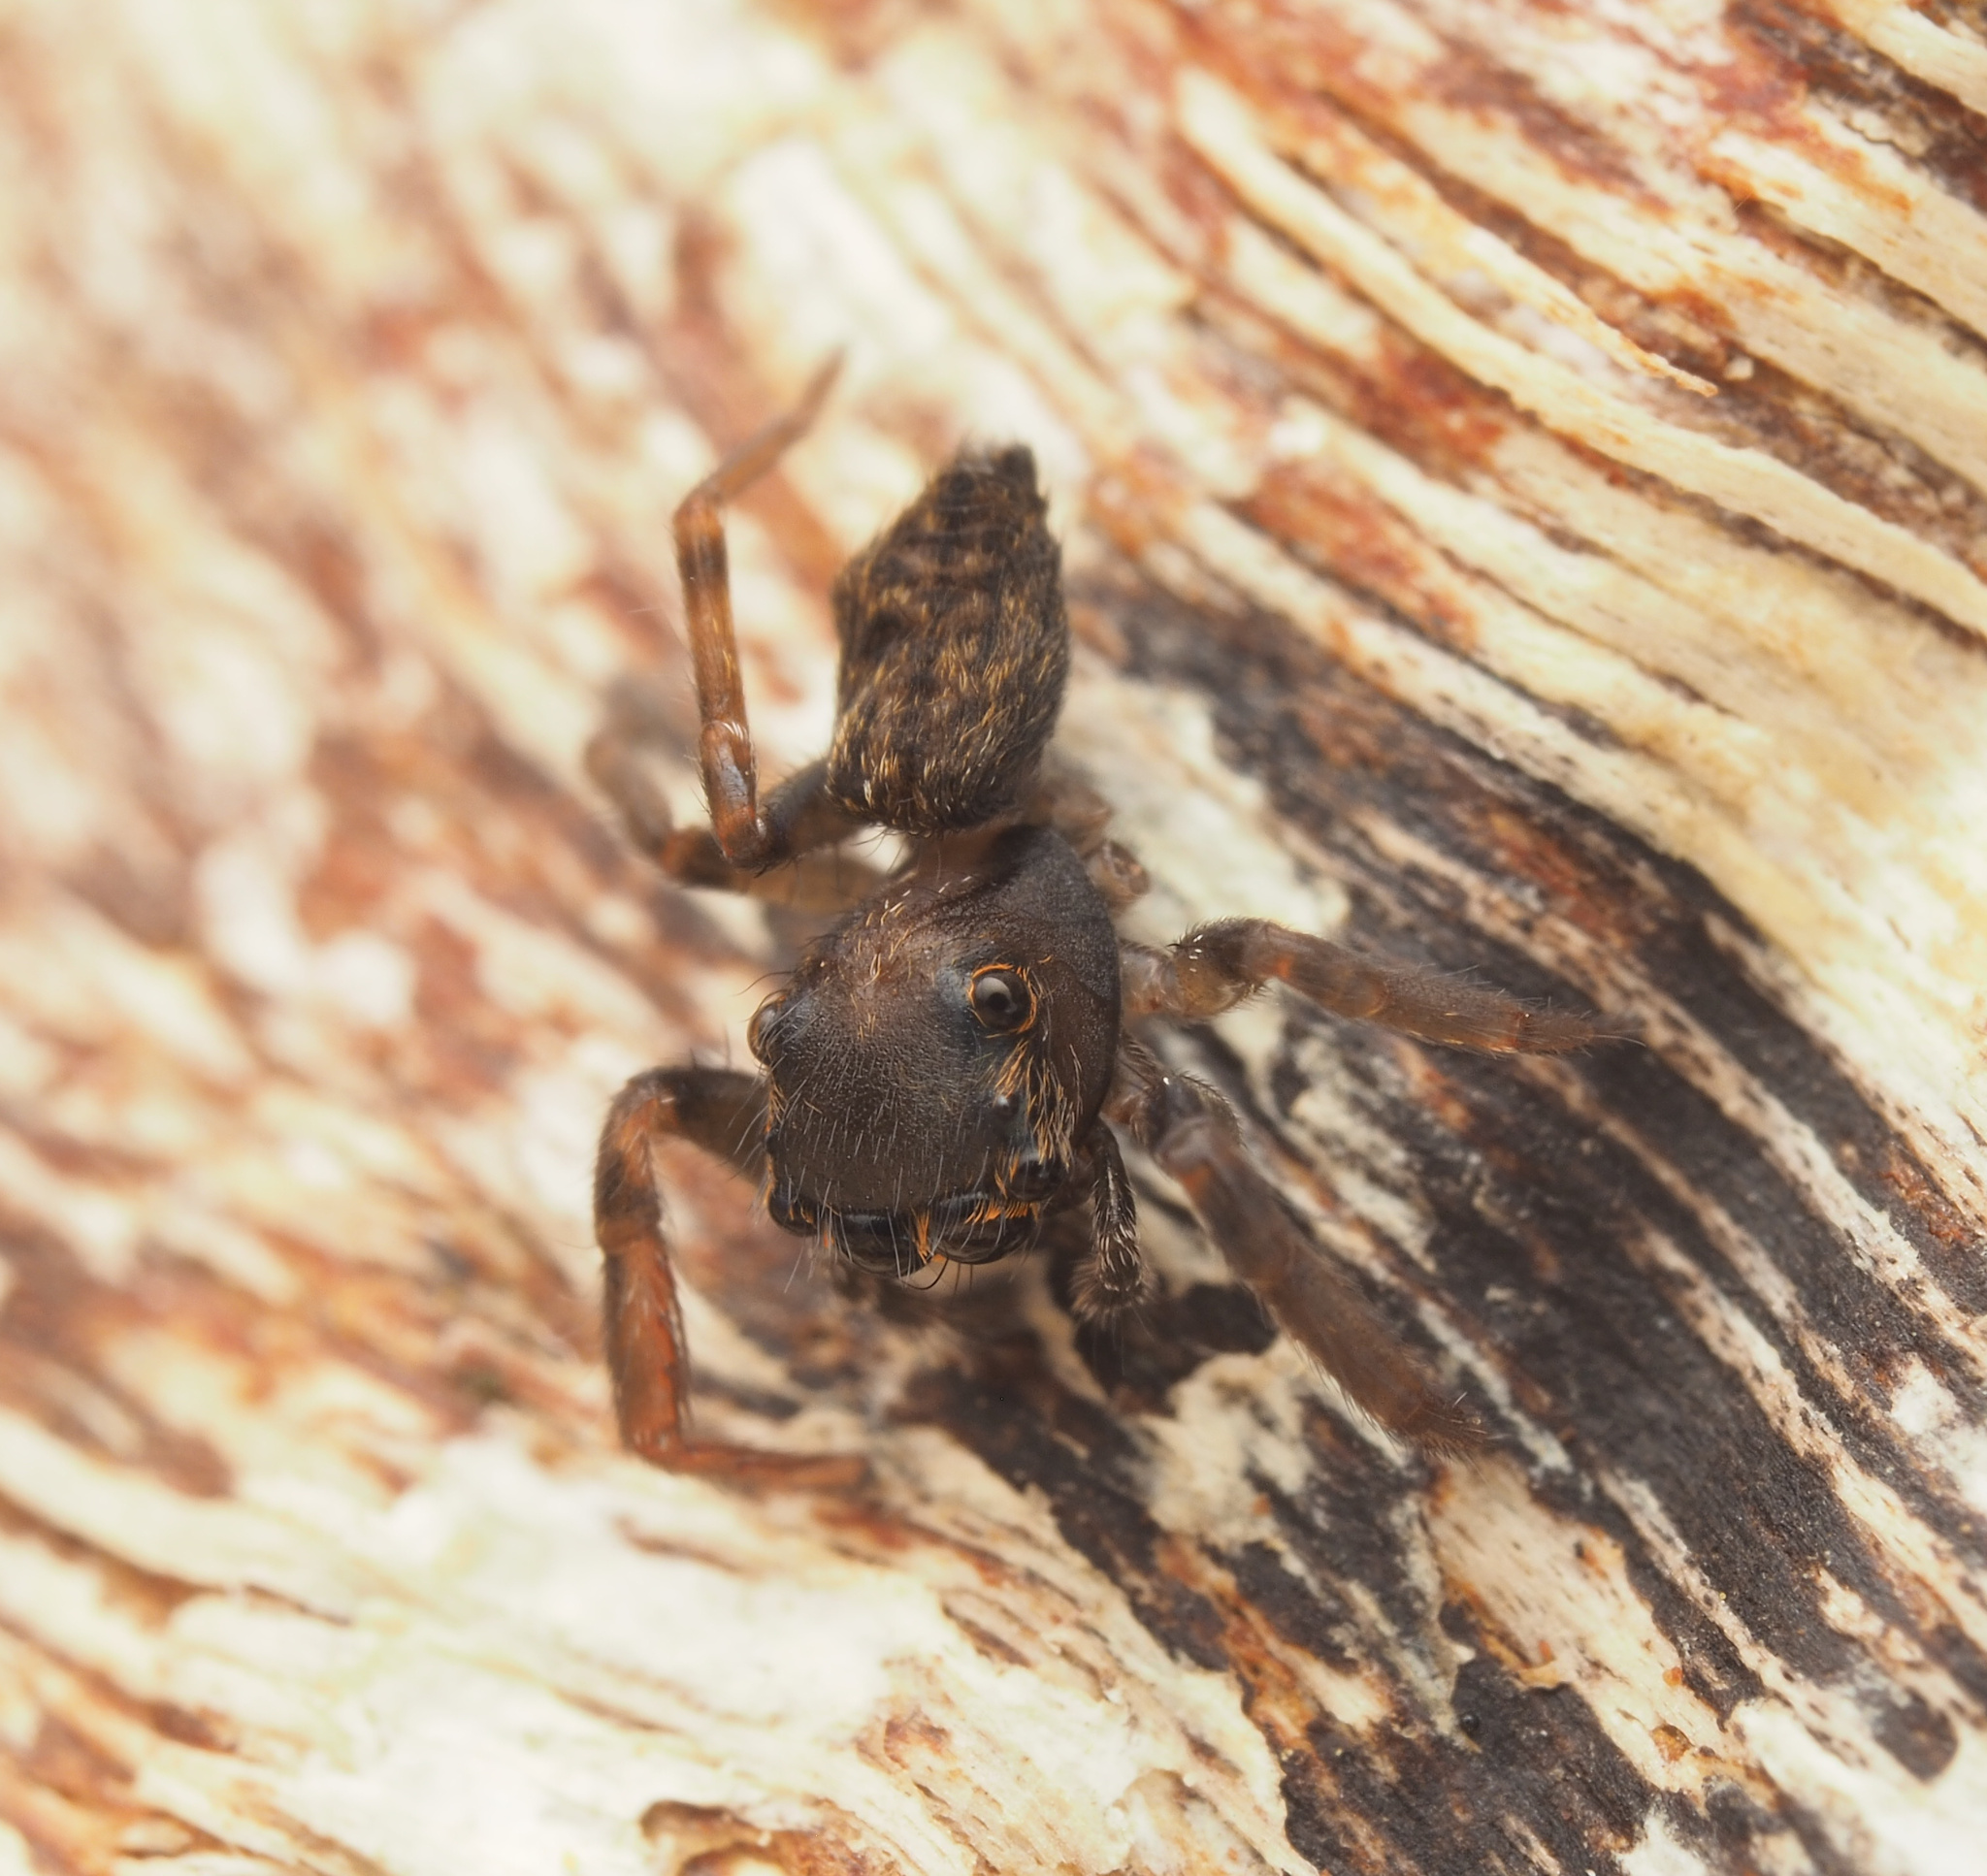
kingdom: Animalia
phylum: Arthropoda
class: Arachnida
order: Araneae
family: Salticidae
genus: Sondra
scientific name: Sondra aurea
